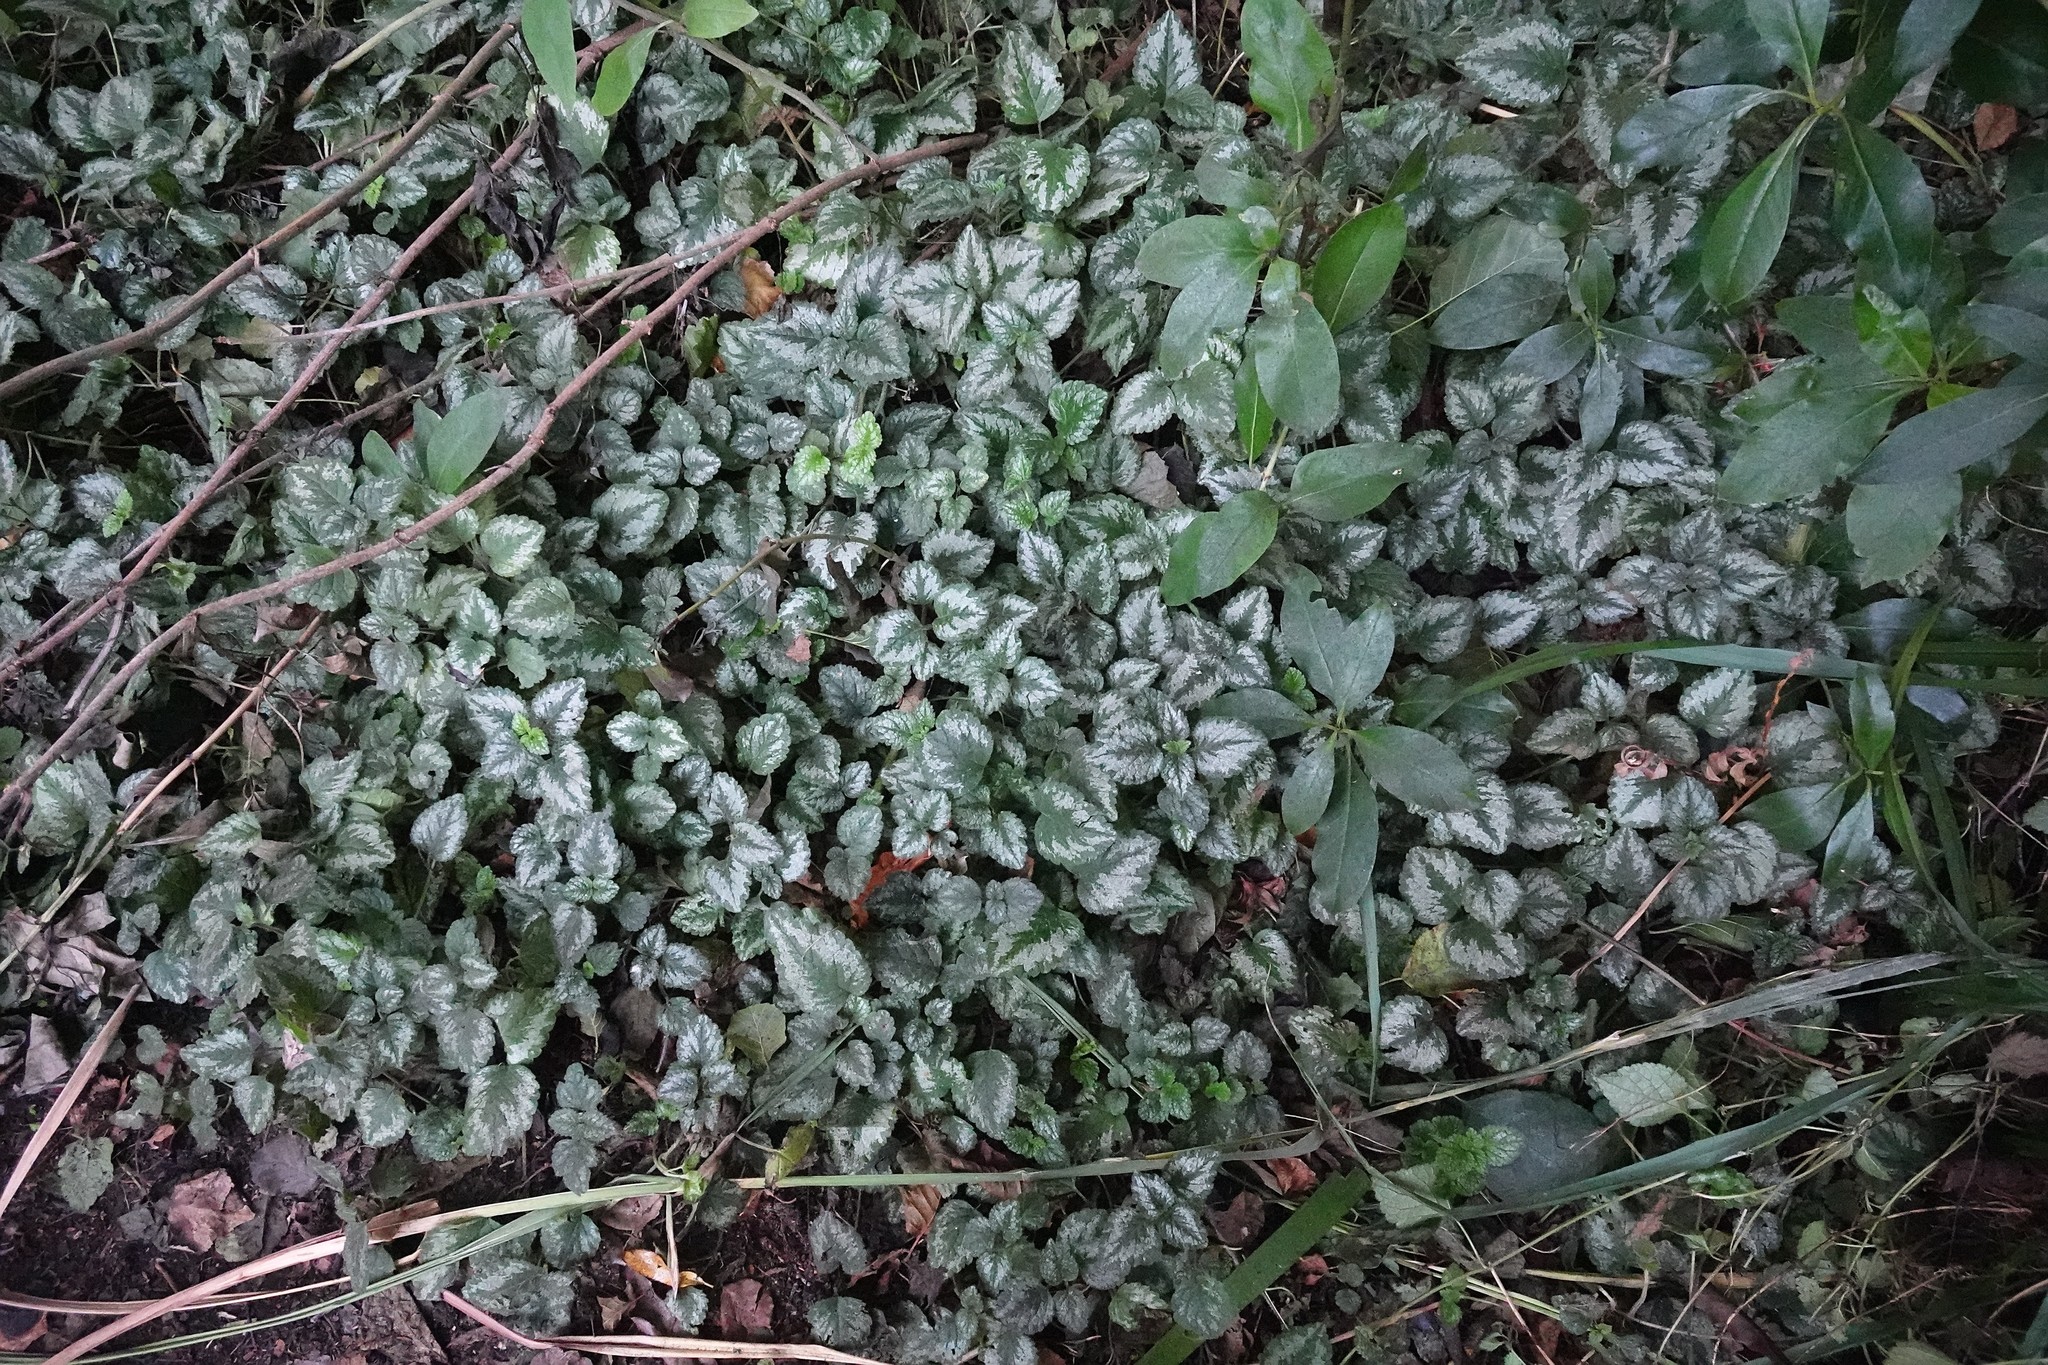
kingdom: Plantae
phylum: Tracheophyta
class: Magnoliopsida
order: Lamiales
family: Lamiaceae
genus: Lamium
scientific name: Lamium galeobdolon
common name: Yellow archangel
